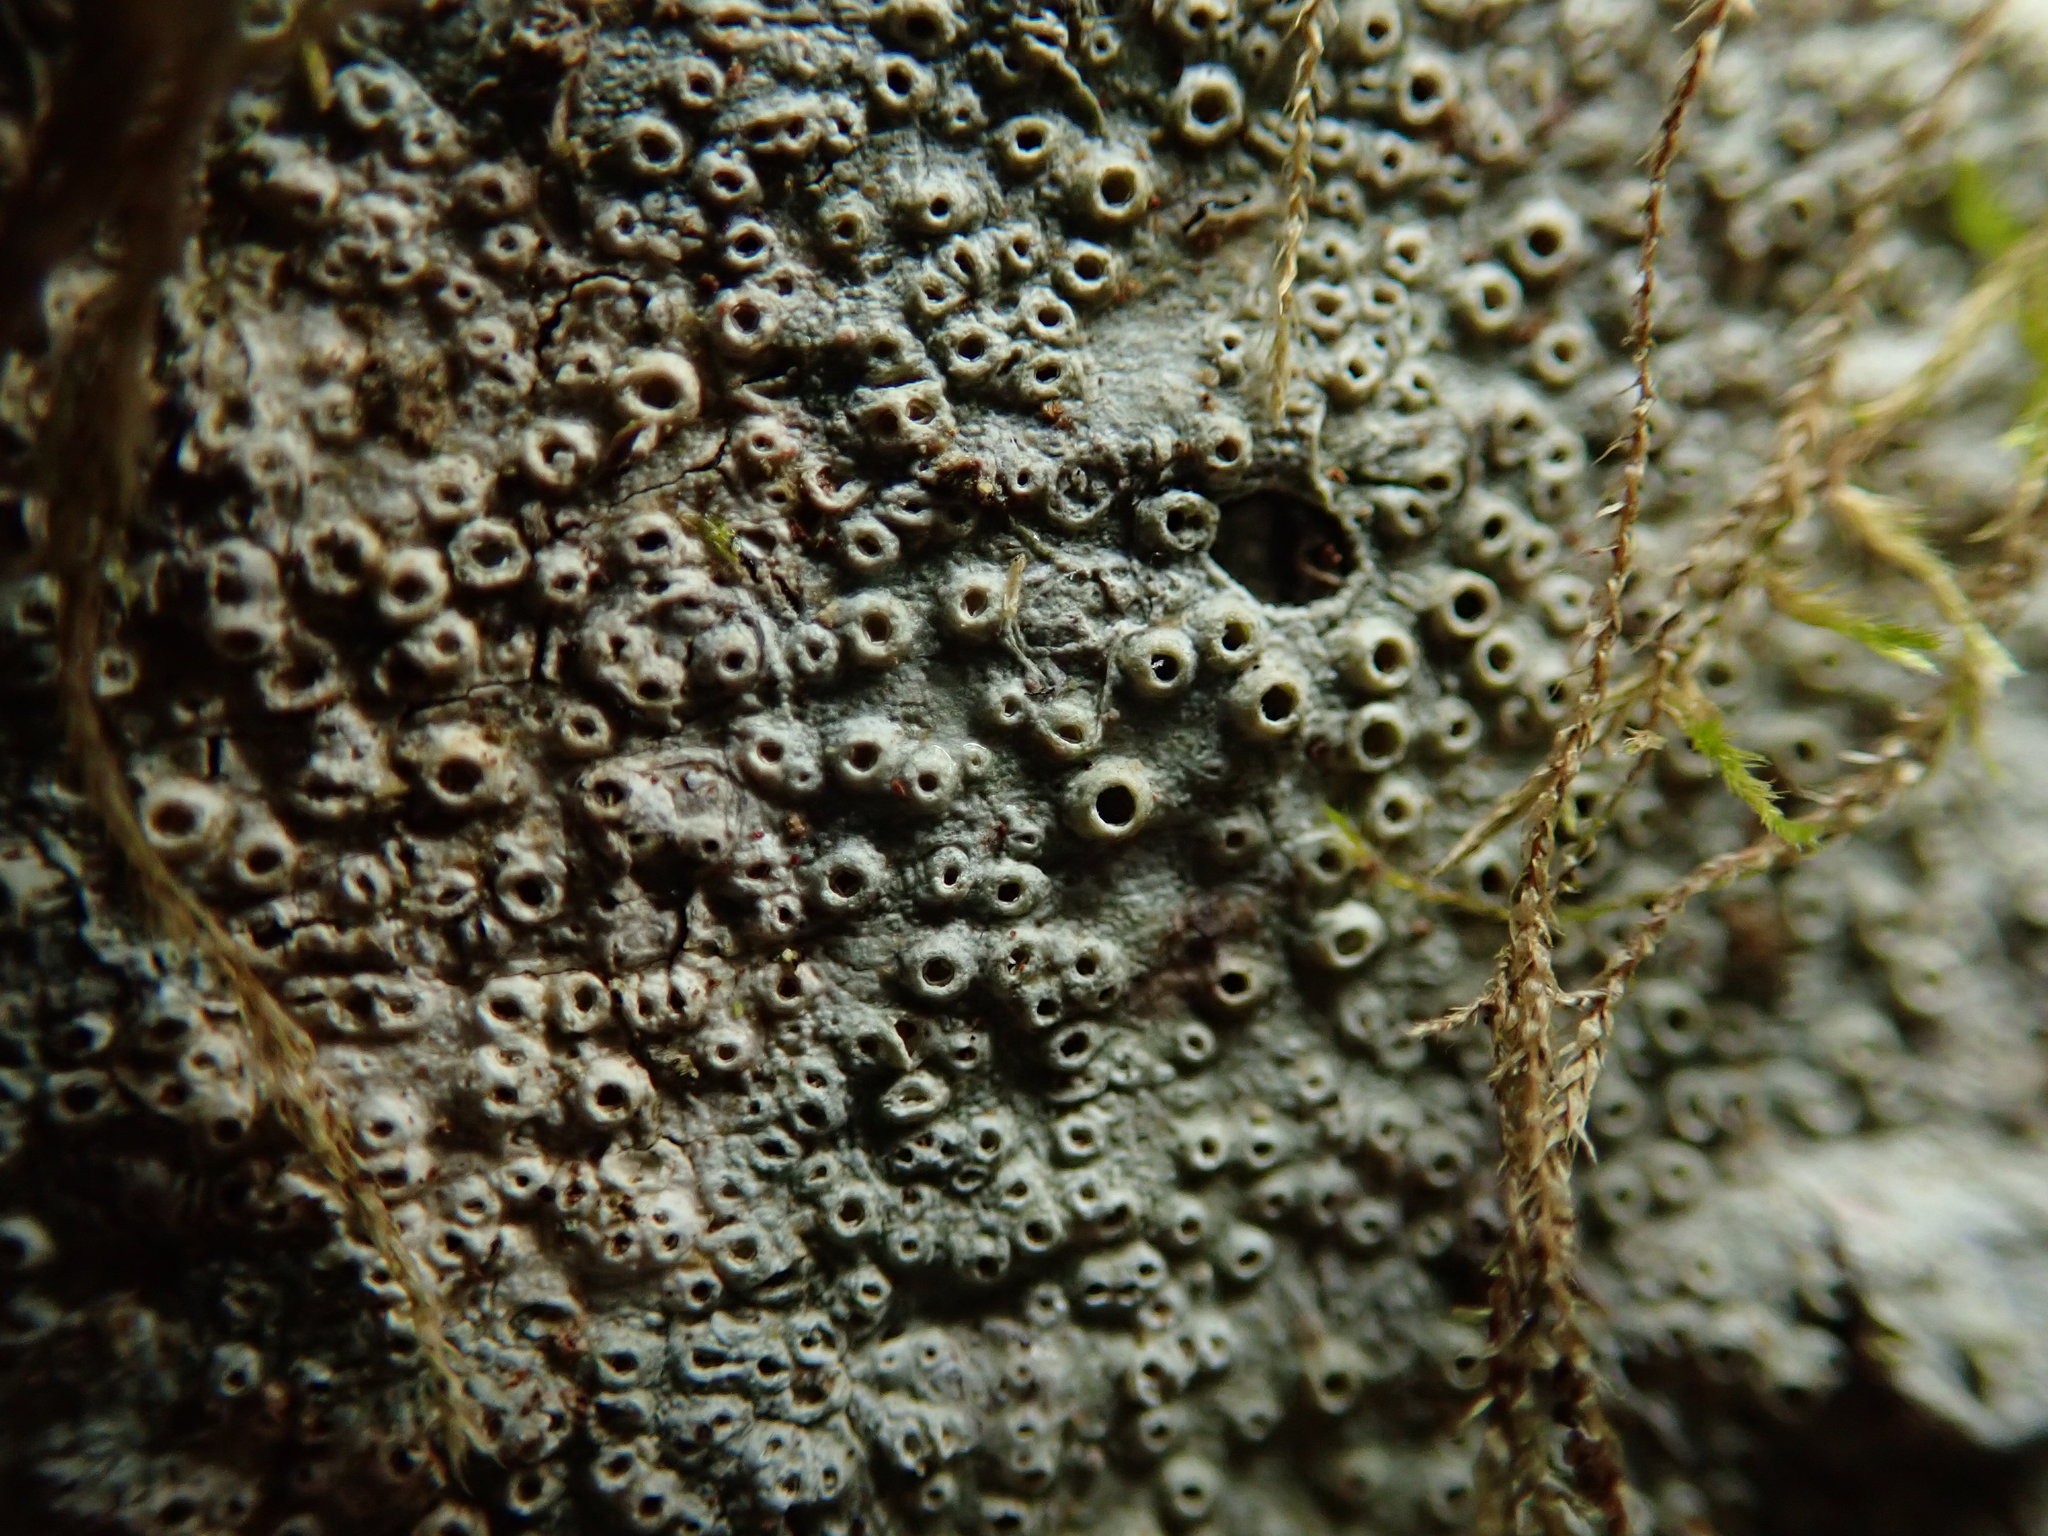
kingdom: Fungi
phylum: Ascomycota
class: Lecanoromycetes
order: Ostropales
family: Graphidaceae
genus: Thelotrema
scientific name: Thelotrema lepadinum
